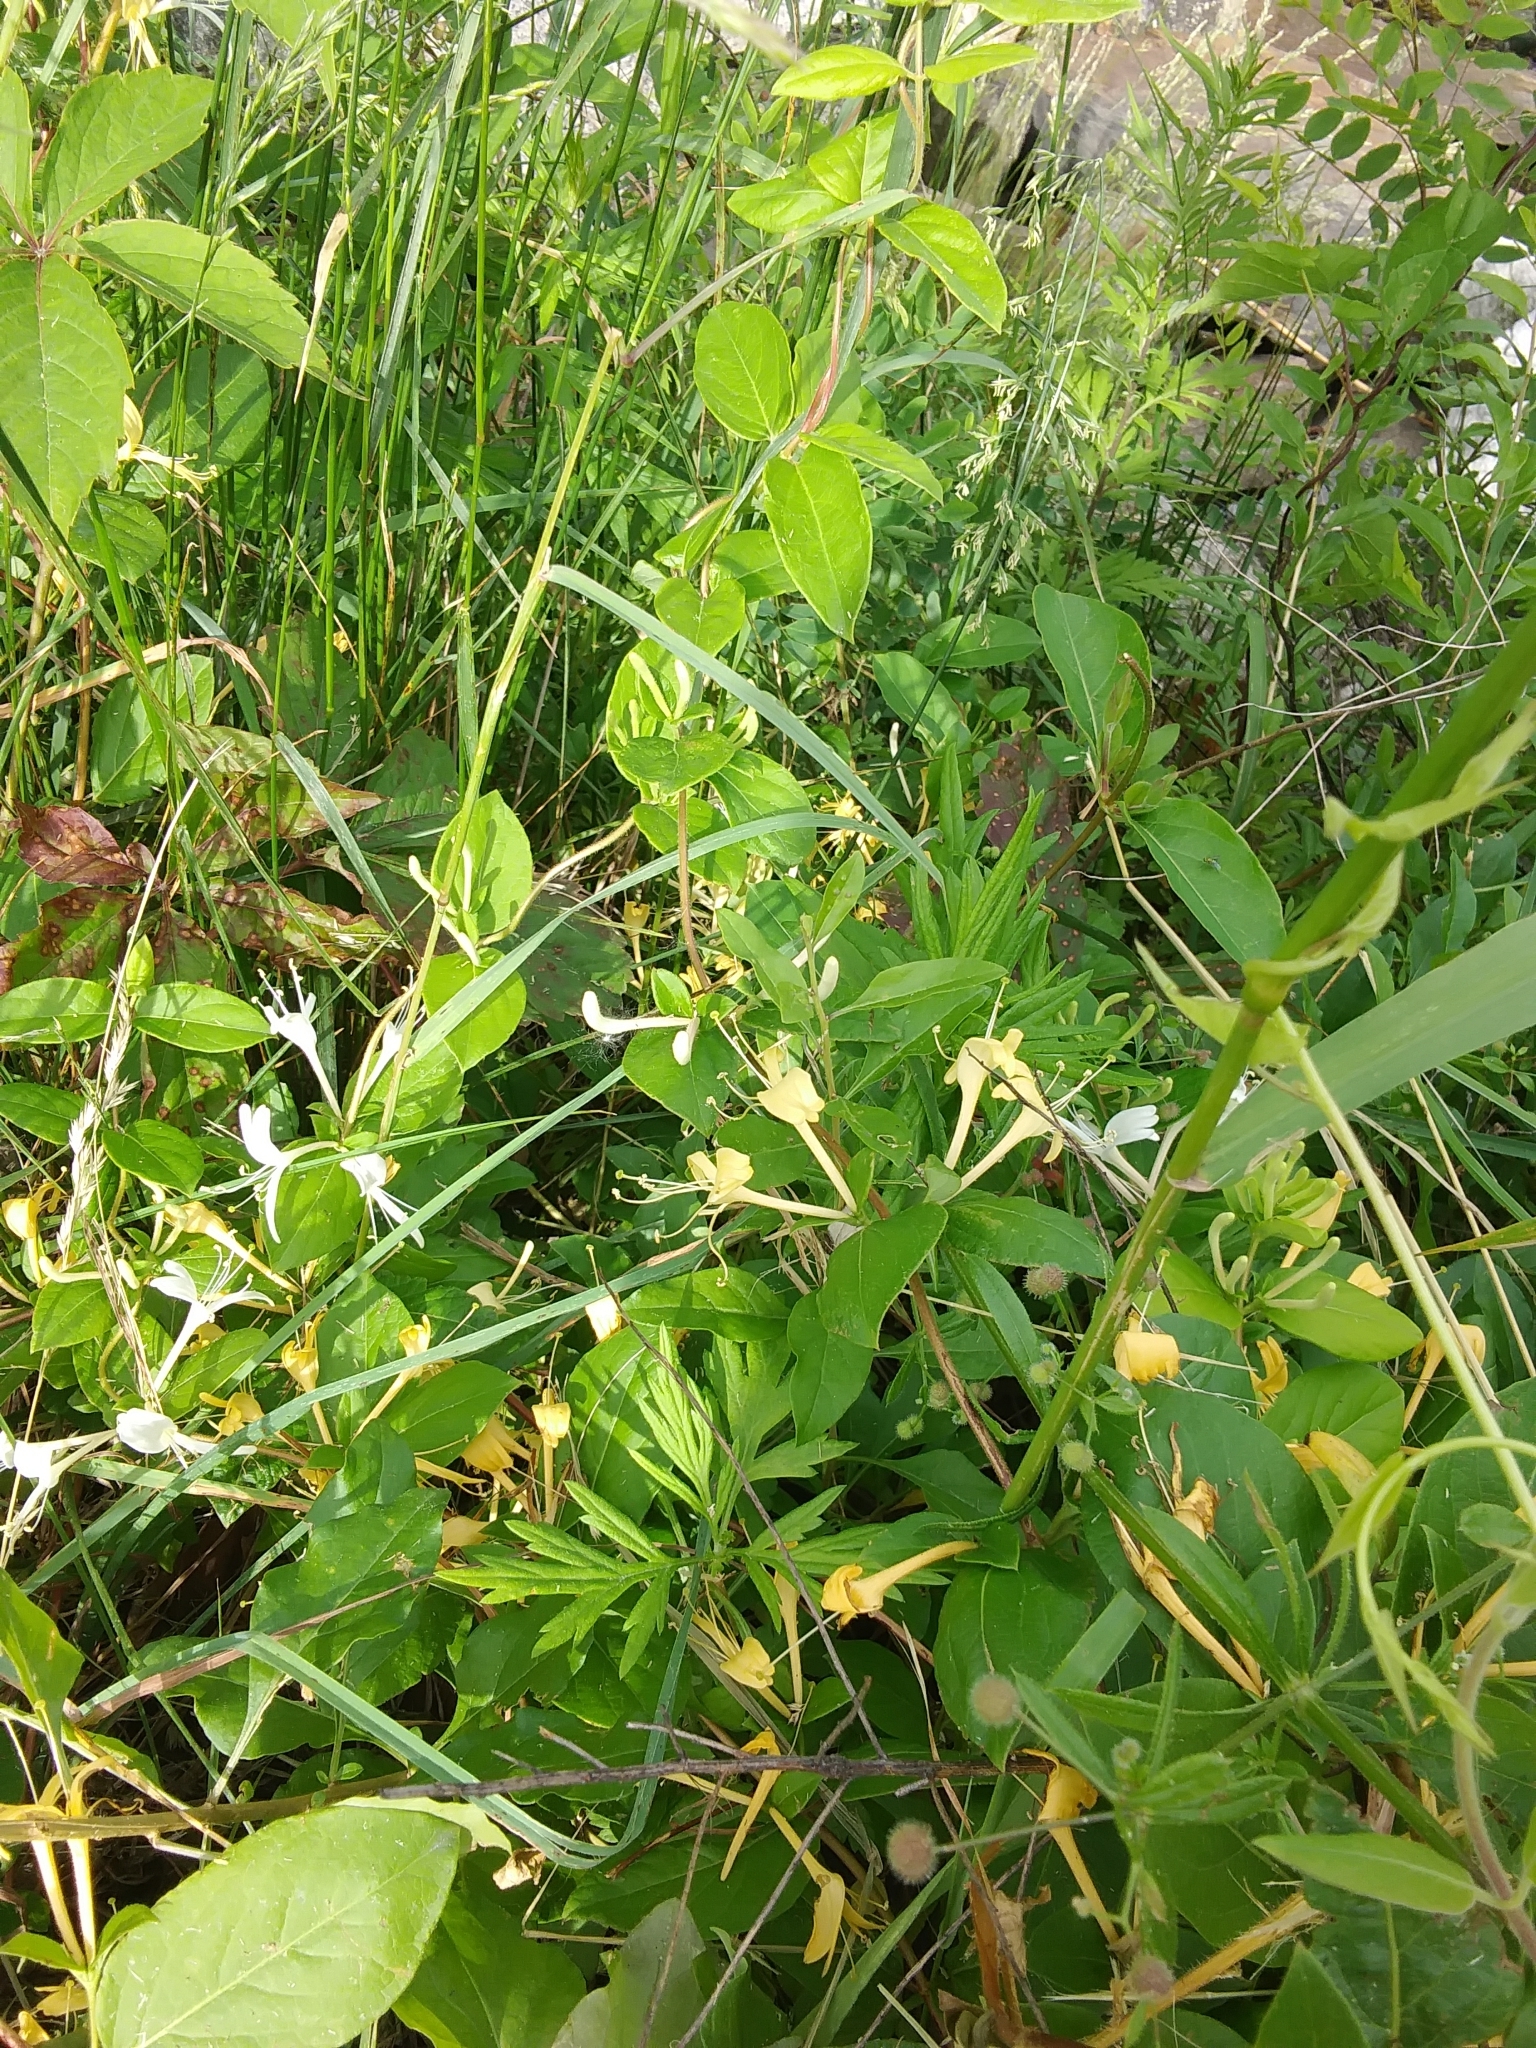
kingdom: Plantae
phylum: Tracheophyta
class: Magnoliopsida
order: Dipsacales
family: Caprifoliaceae
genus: Lonicera
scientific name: Lonicera japonica
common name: Japanese honeysuckle
